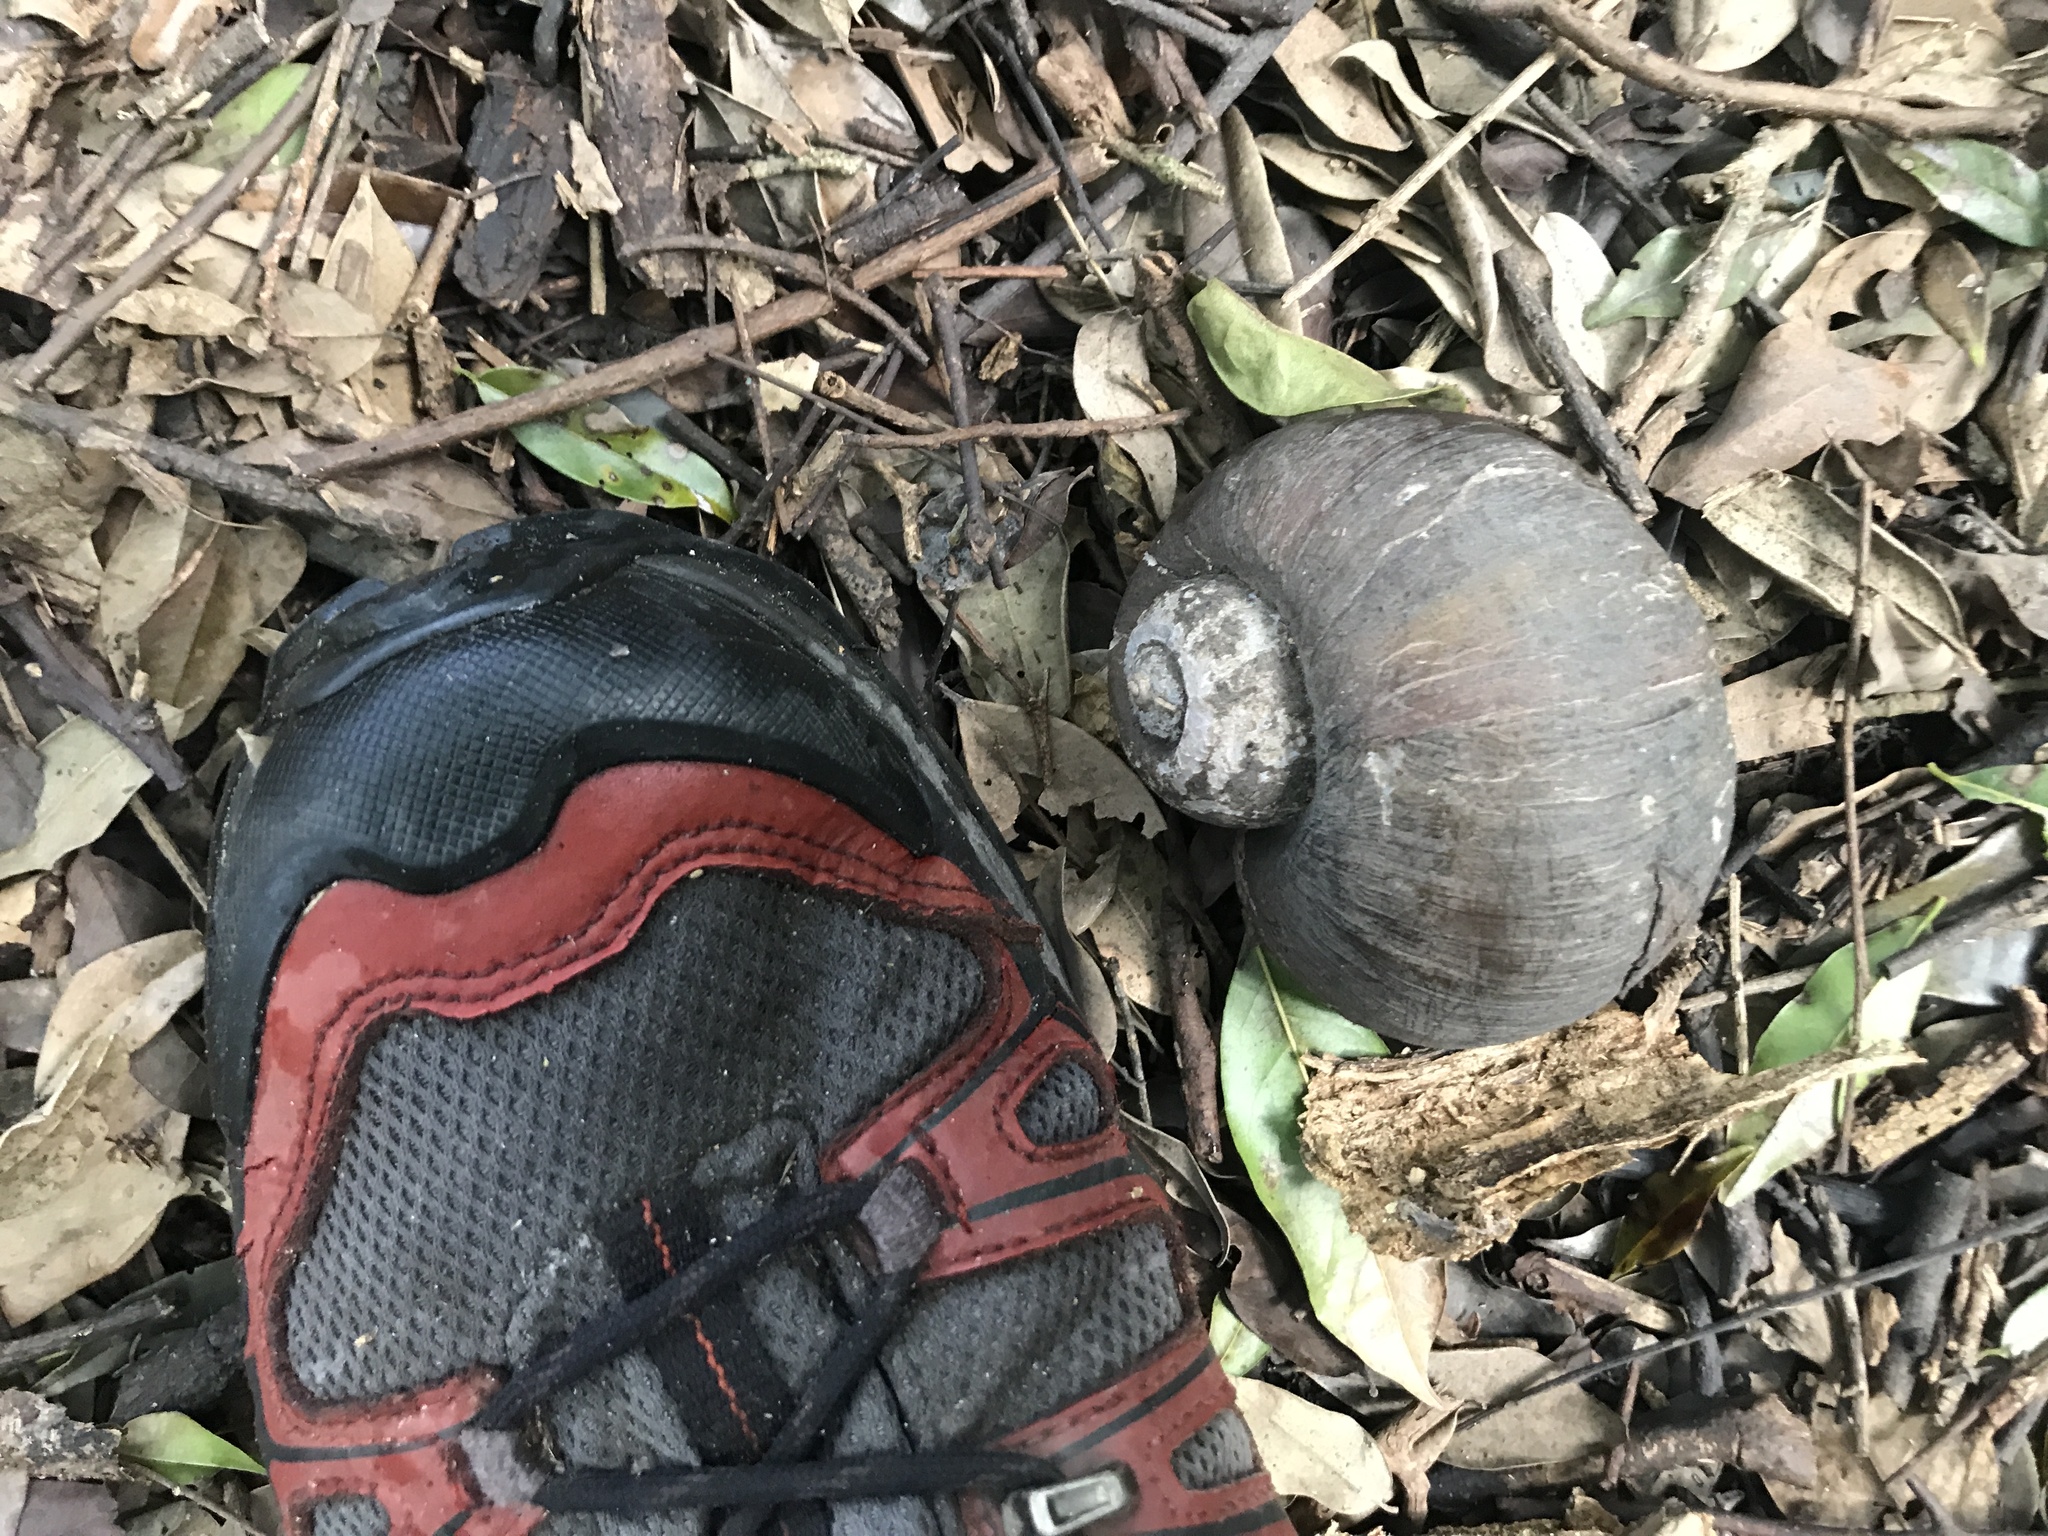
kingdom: Animalia
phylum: Mollusca
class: Gastropoda
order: Architaenioglossa
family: Ampullariidae
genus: Pomacea
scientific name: Pomacea maculata
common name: Giant applesnail
